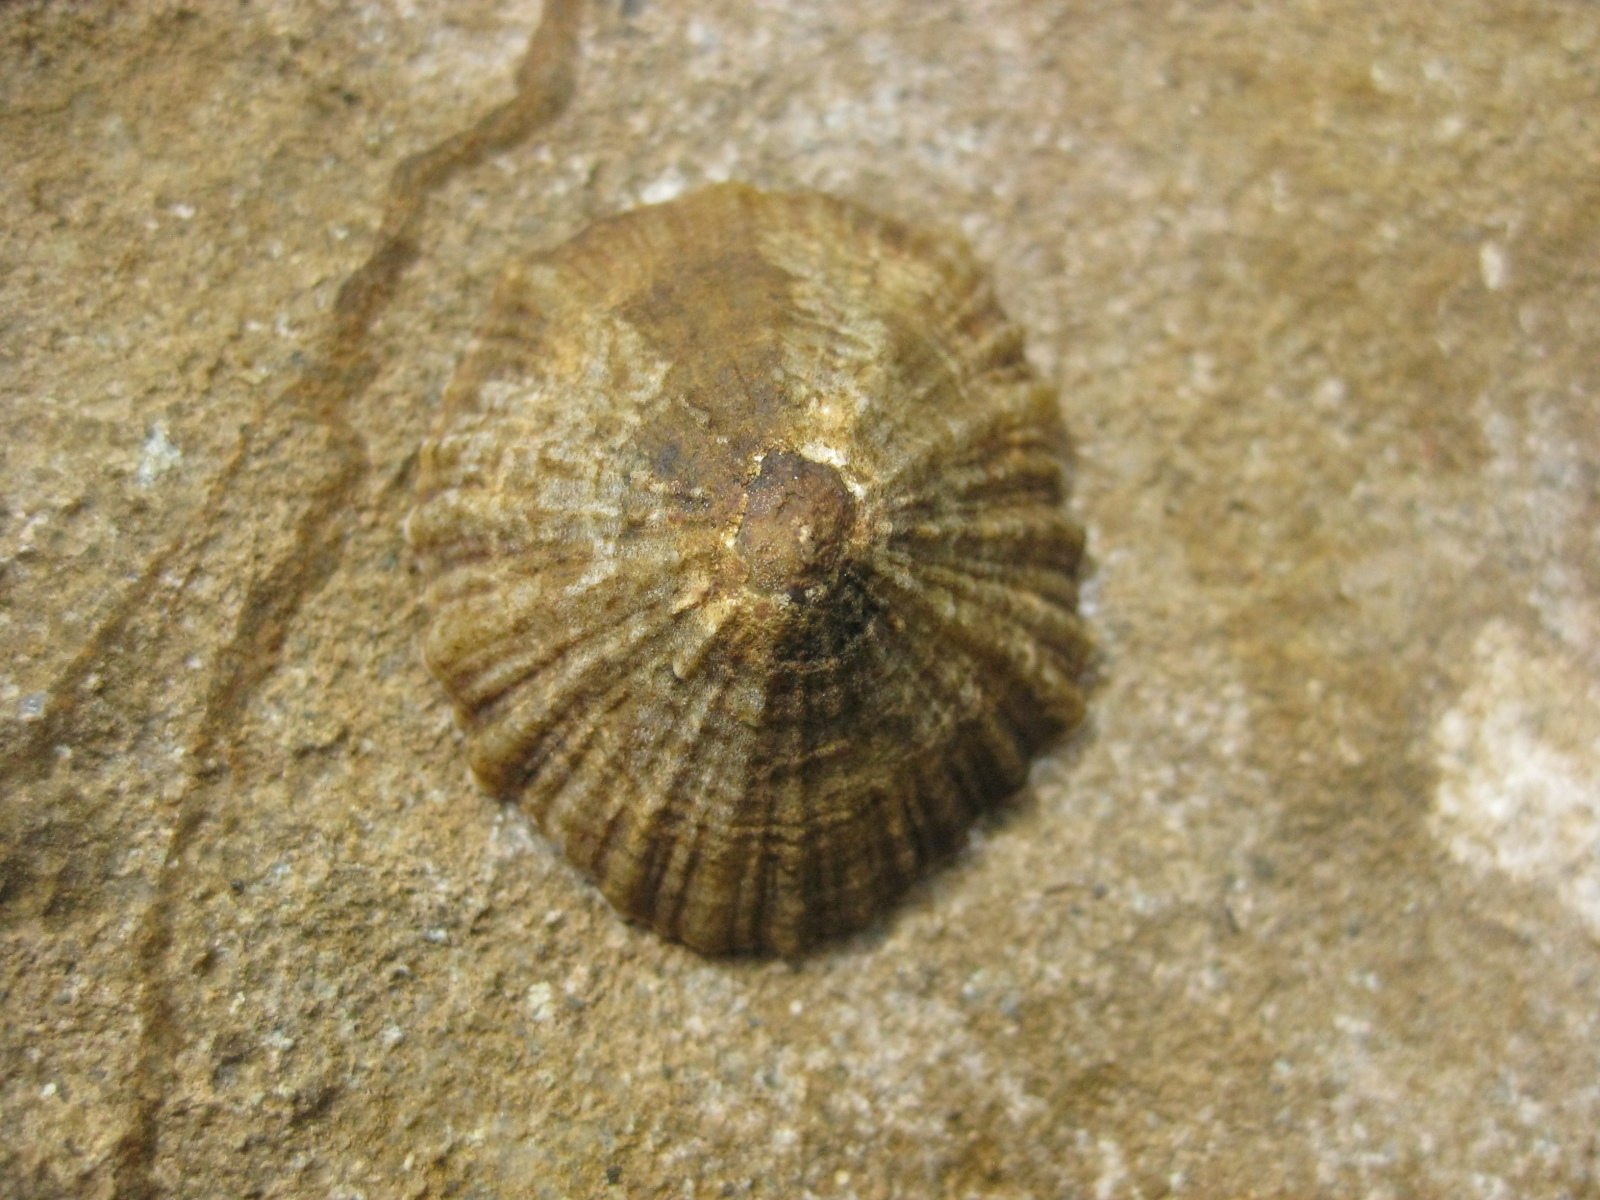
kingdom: Animalia
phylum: Mollusca
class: Gastropoda
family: Nacellidae
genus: Cellana
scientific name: Cellana ornata
